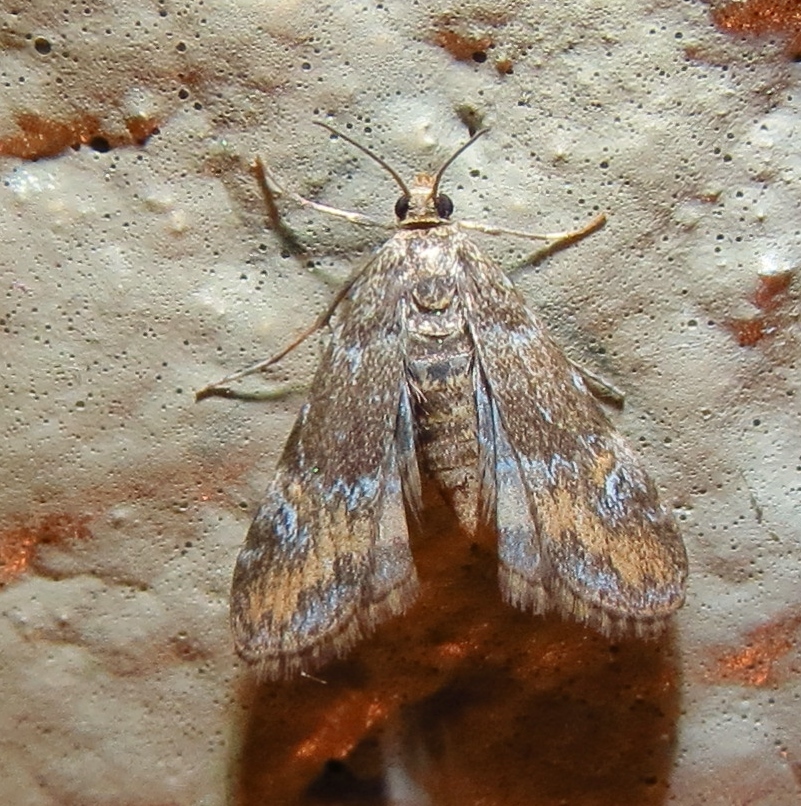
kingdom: Animalia
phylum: Arthropoda
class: Insecta
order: Lepidoptera
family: Crambidae
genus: Elophila
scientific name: Elophila obliteralis
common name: Waterlily leafcutter moth
